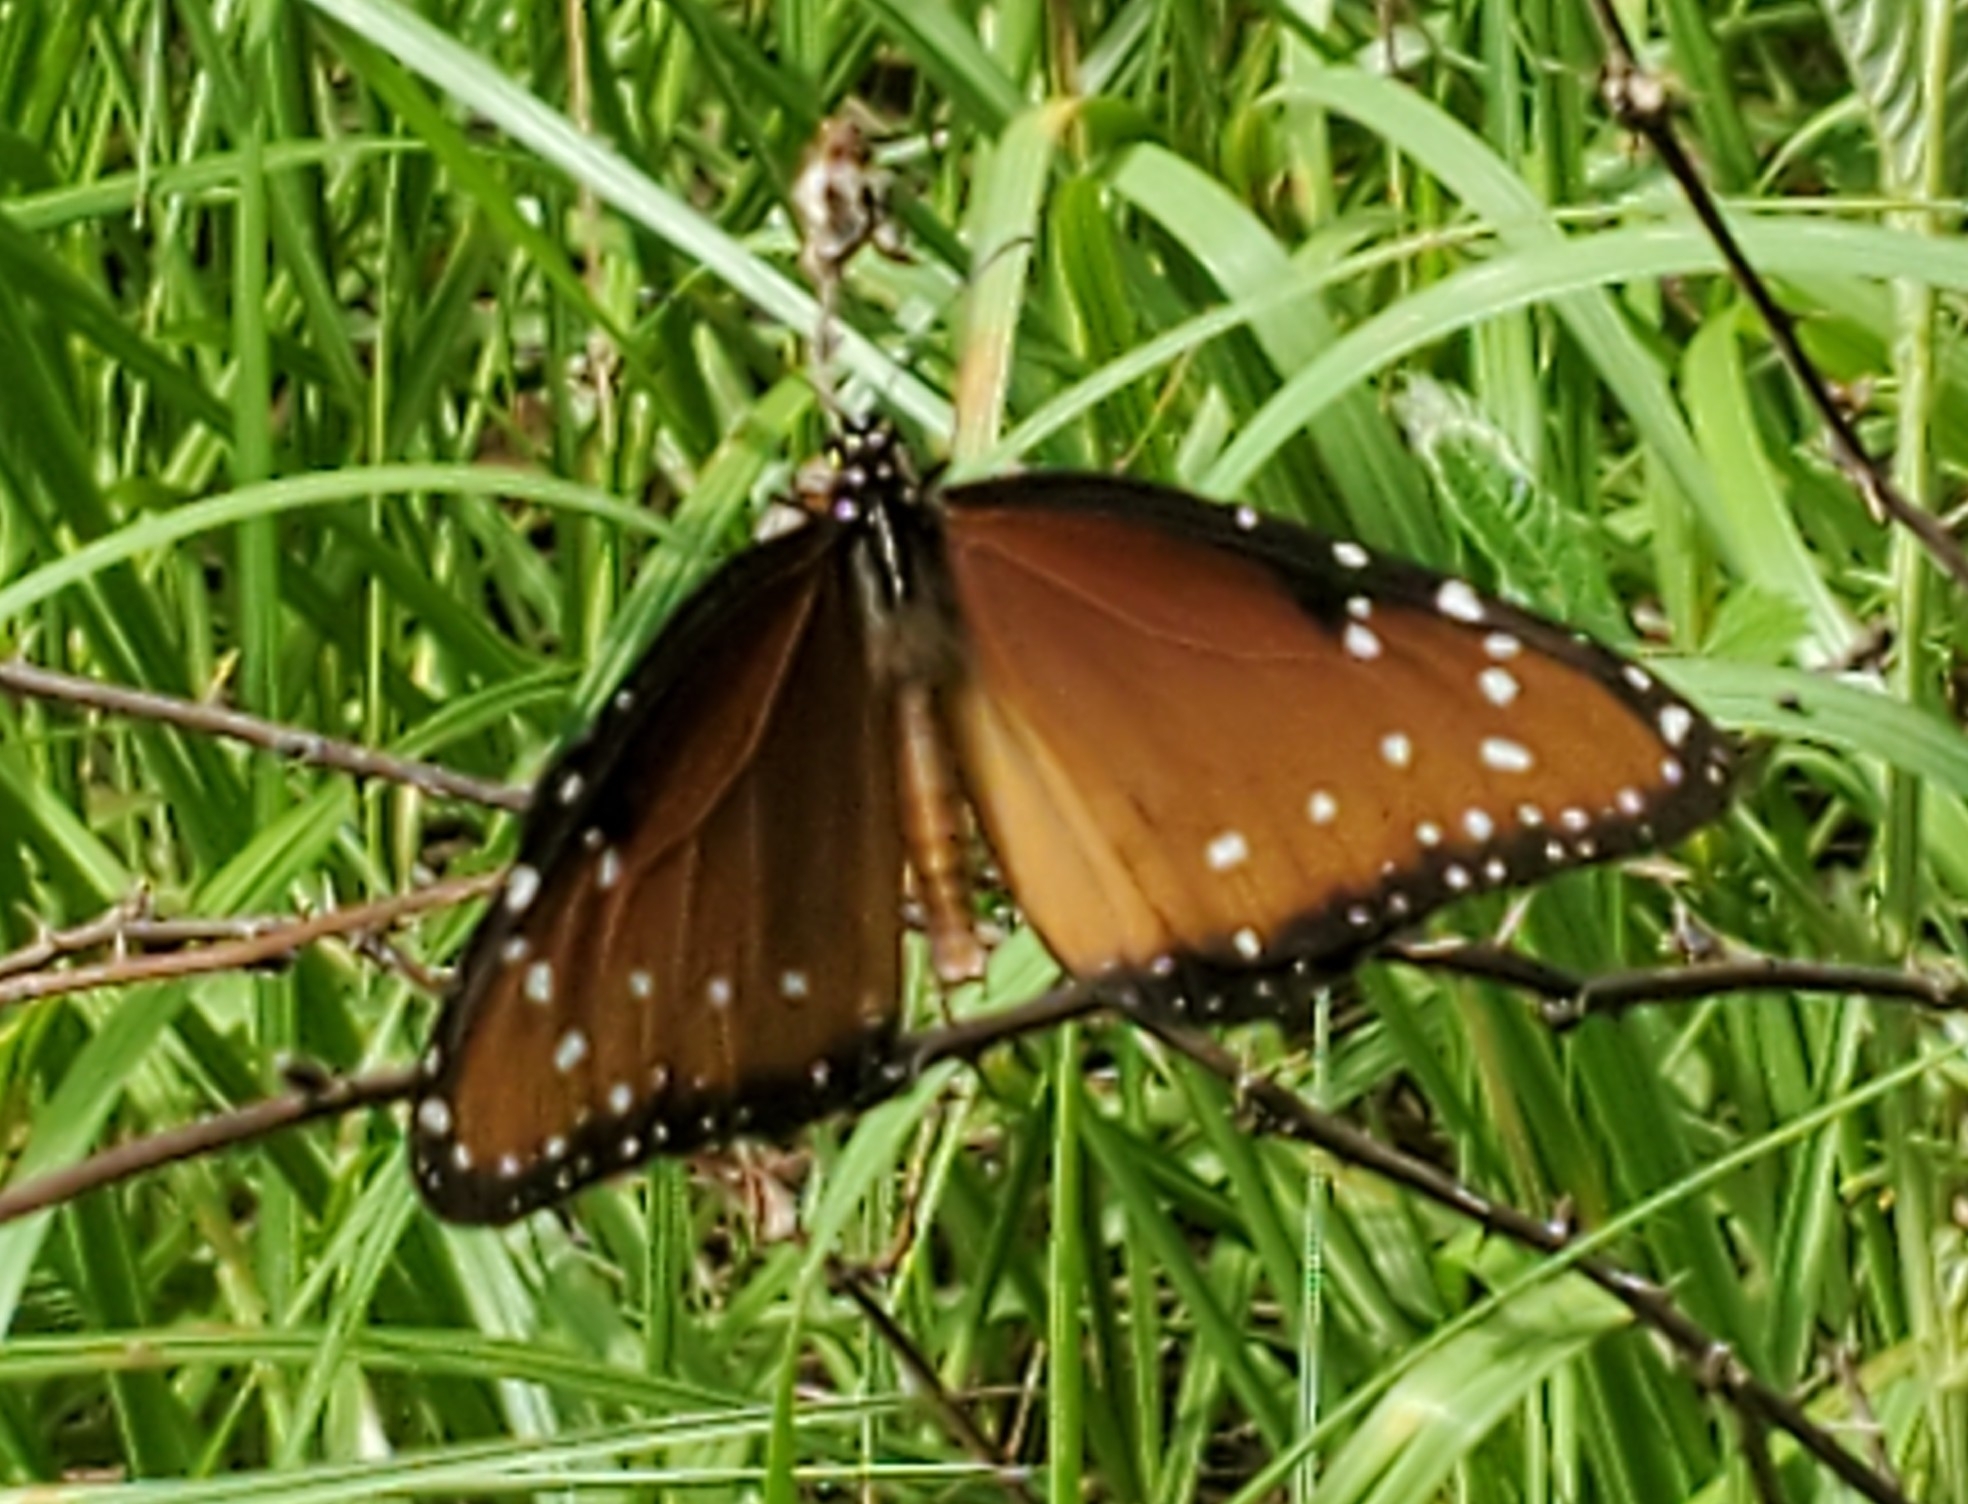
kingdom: Animalia
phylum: Arthropoda
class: Insecta
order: Lepidoptera
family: Nymphalidae
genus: Danaus
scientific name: Danaus gilippus
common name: Queen
